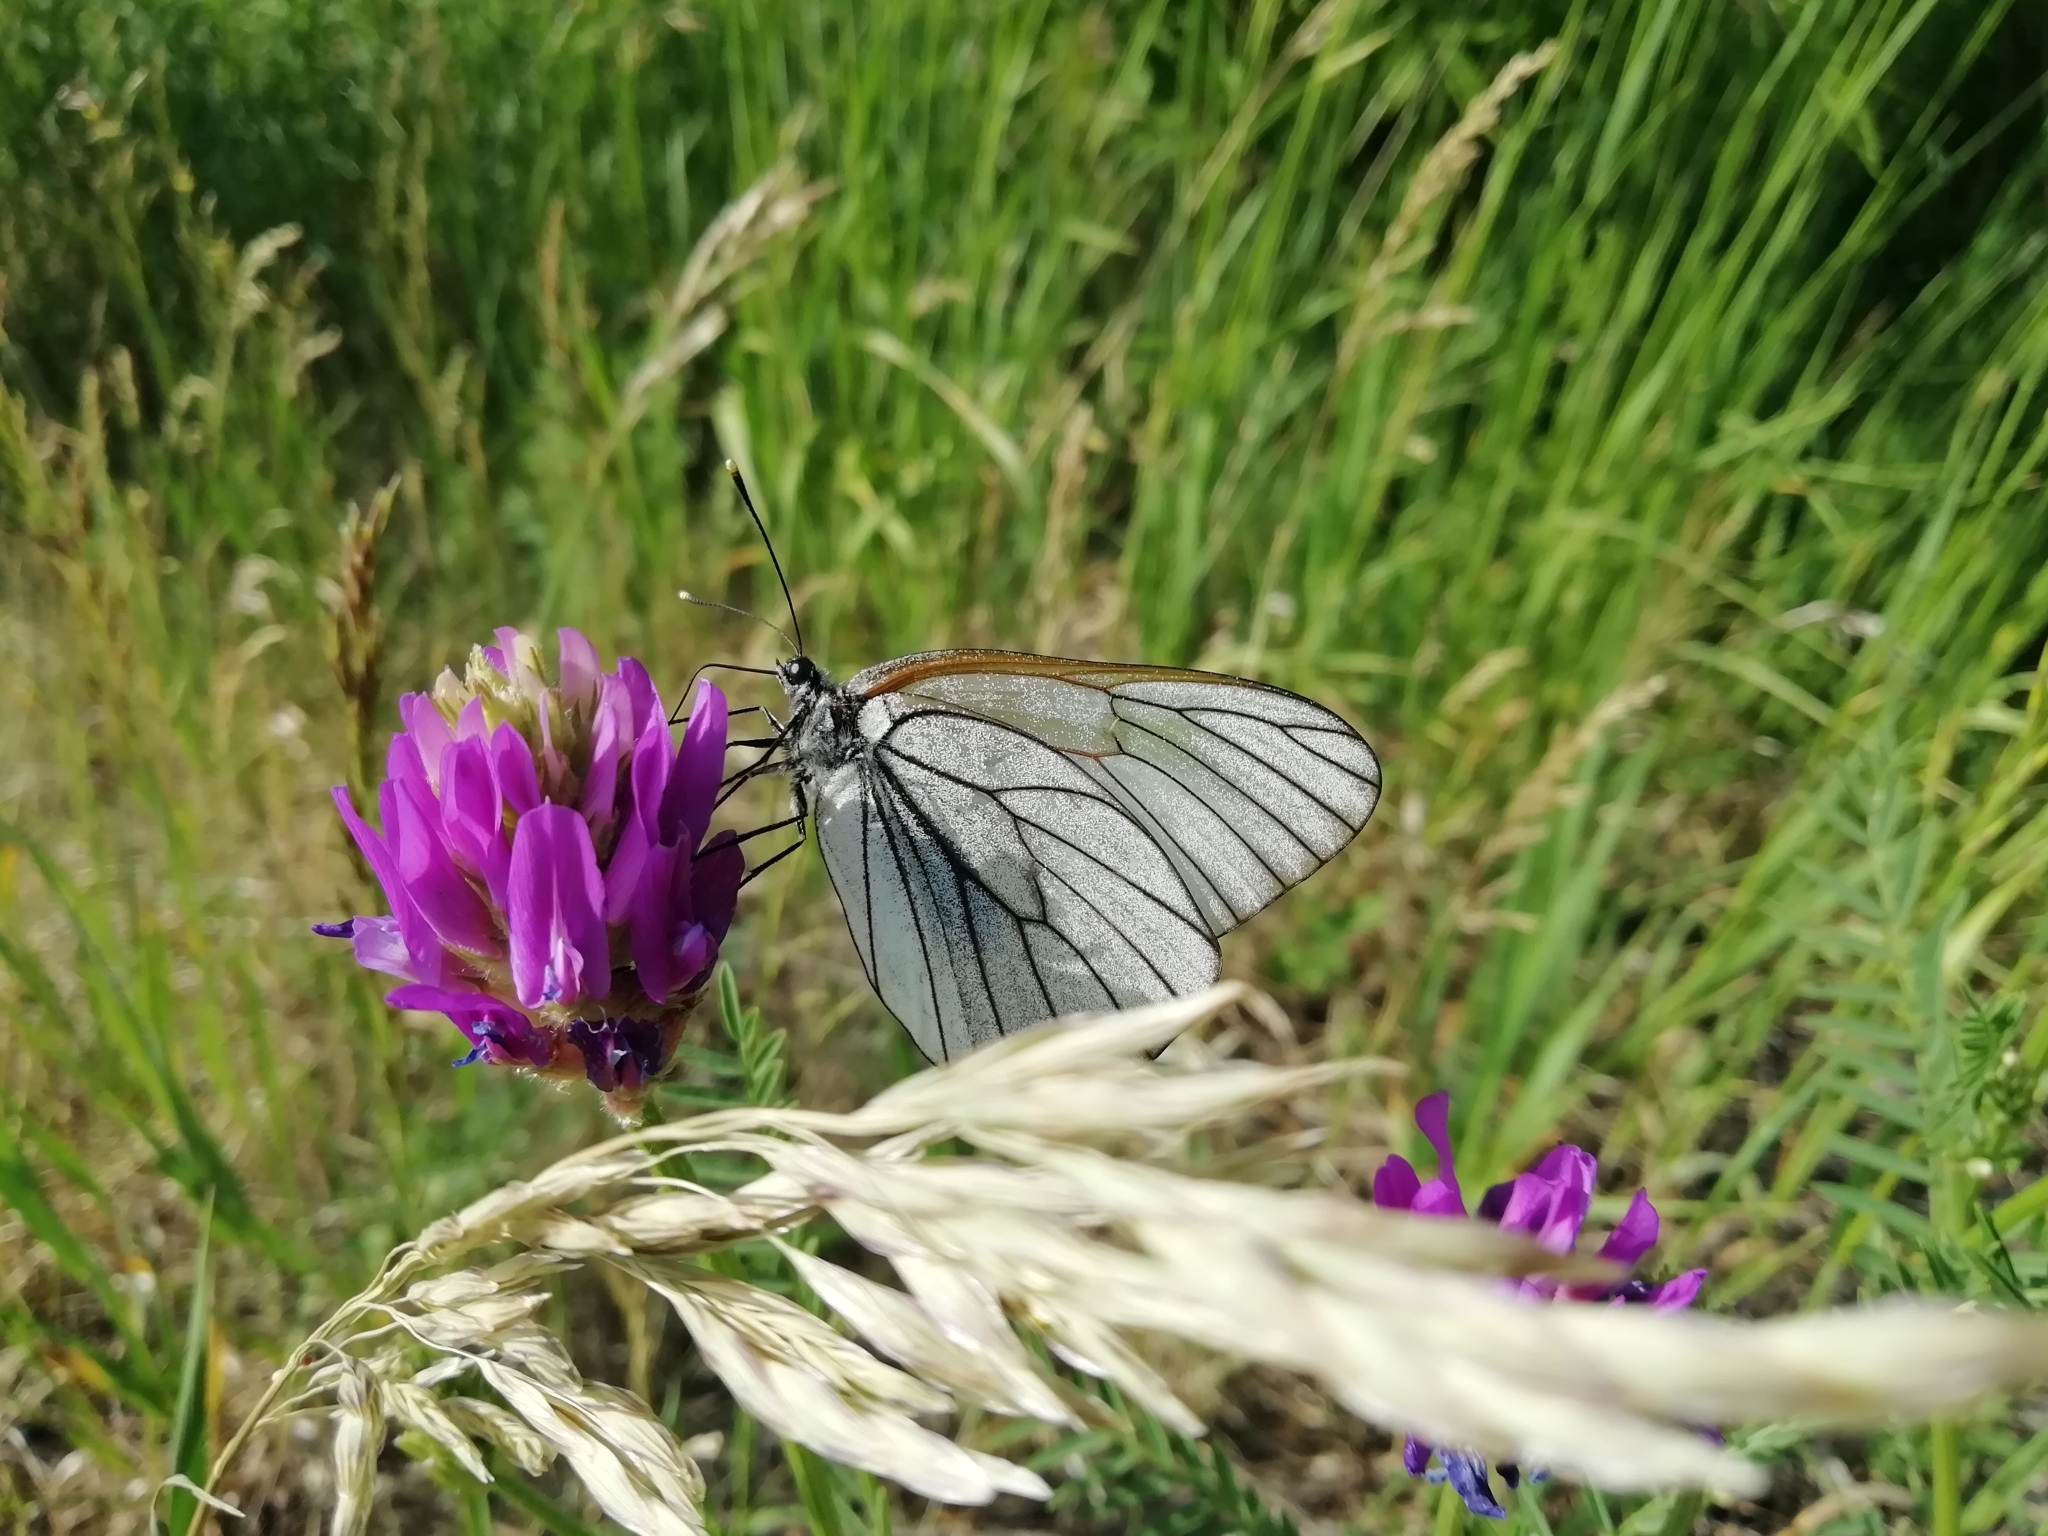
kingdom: Animalia
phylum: Arthropoda
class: Insecta
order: Lepidoptera
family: Pieridae
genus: Aporia
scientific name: Aporia crataegi
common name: Black-veined white
